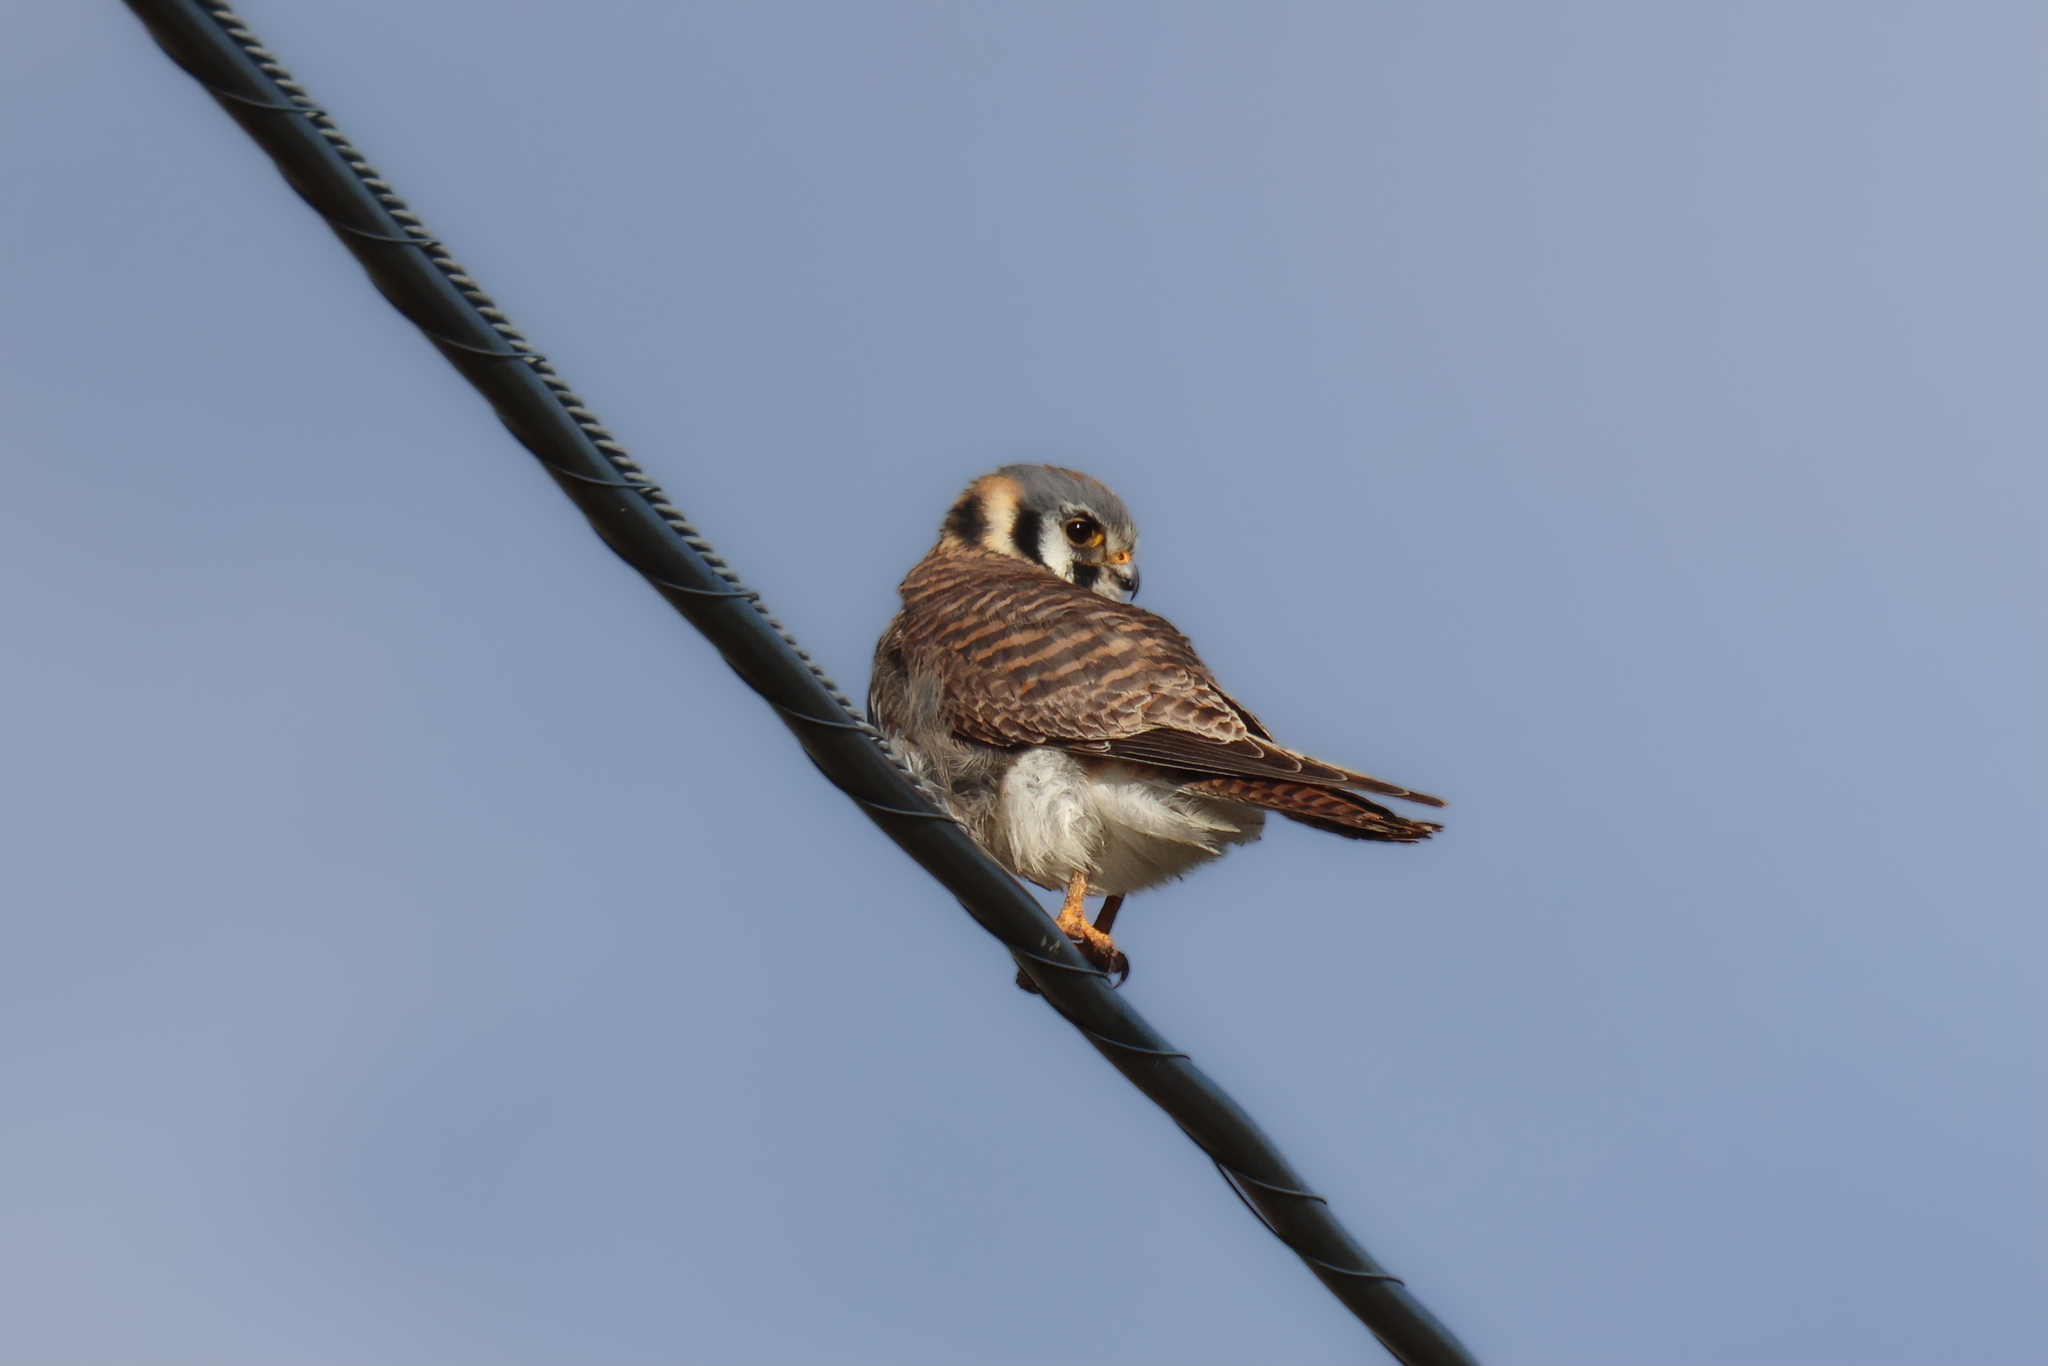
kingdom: Animalia
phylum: Chordata
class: Aves
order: Falconiformes
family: Falconidae
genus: Falco
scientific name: Falco sparverius
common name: American kestrel
